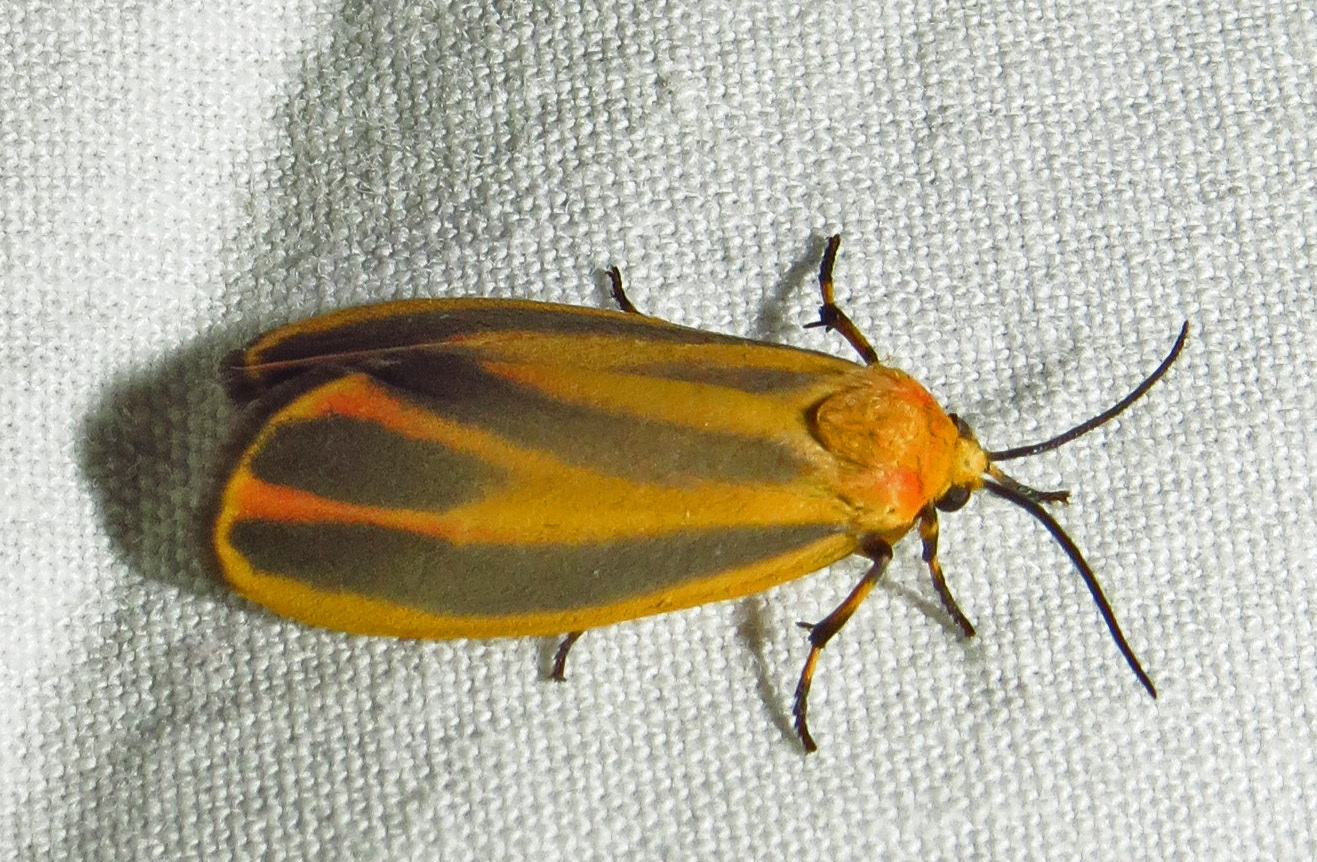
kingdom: Animalia
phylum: Arthropoda
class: Insecta
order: Lepidoptera
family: Erebidae
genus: Hypoprepia
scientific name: Hypoprepia fucosa
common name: Painted lichen moth
